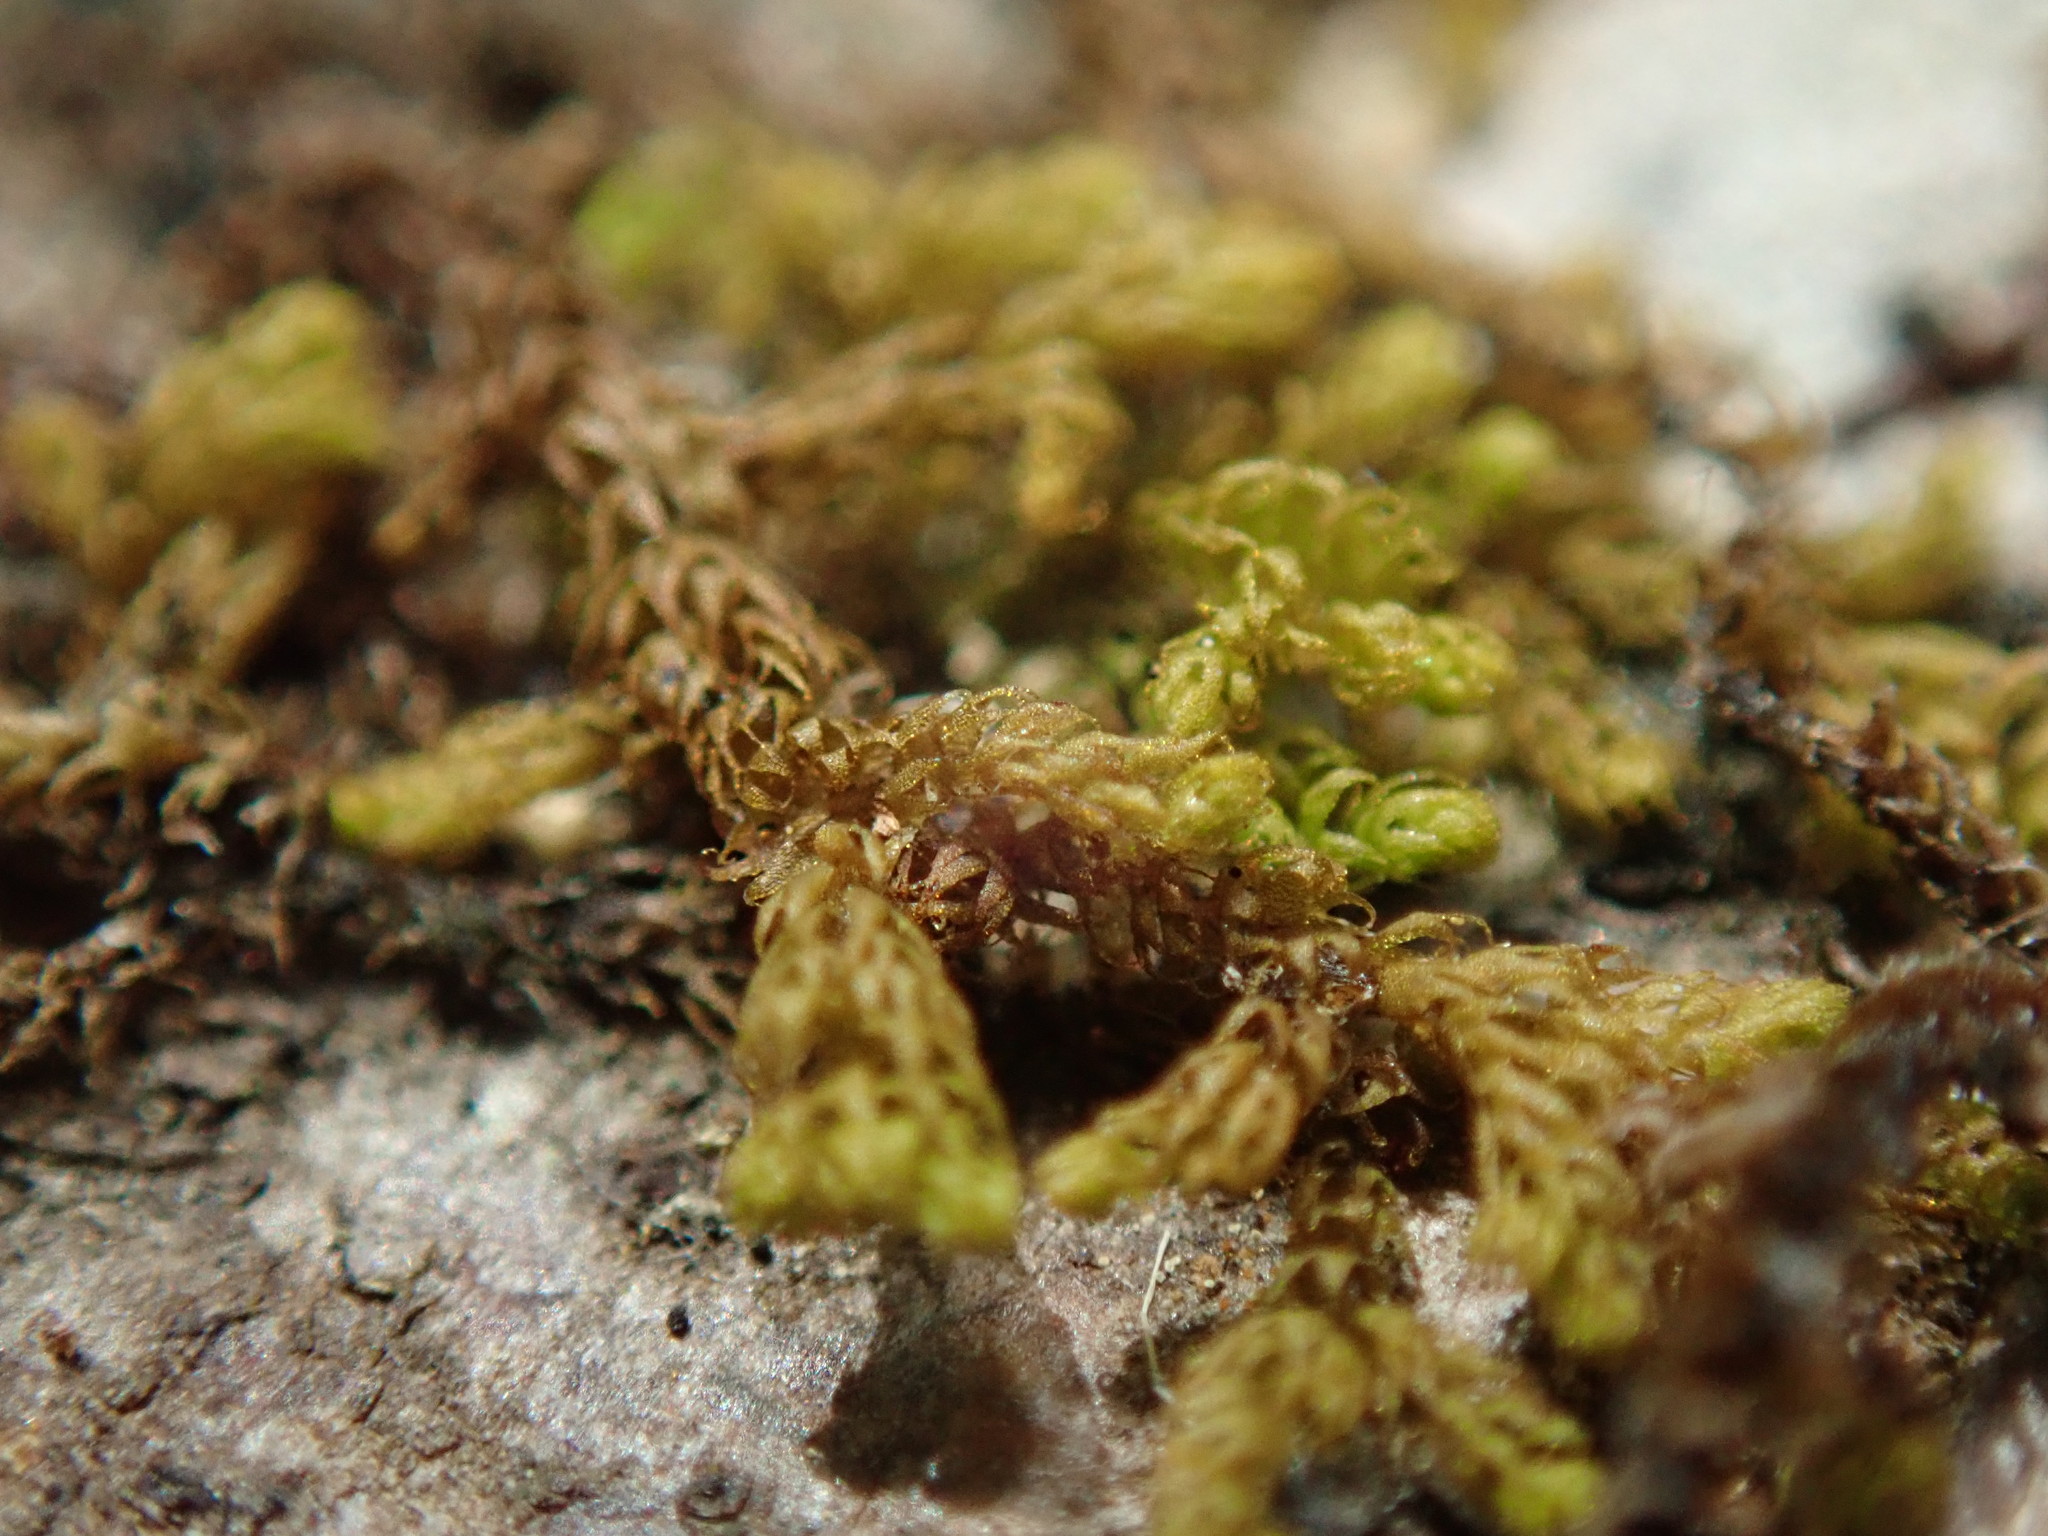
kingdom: Plantae
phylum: Marchantiophyta
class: Jungermanniopsida
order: Ptilidiales
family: Ptilidiaceae
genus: Ptilidium
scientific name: Ptilidium californicum
